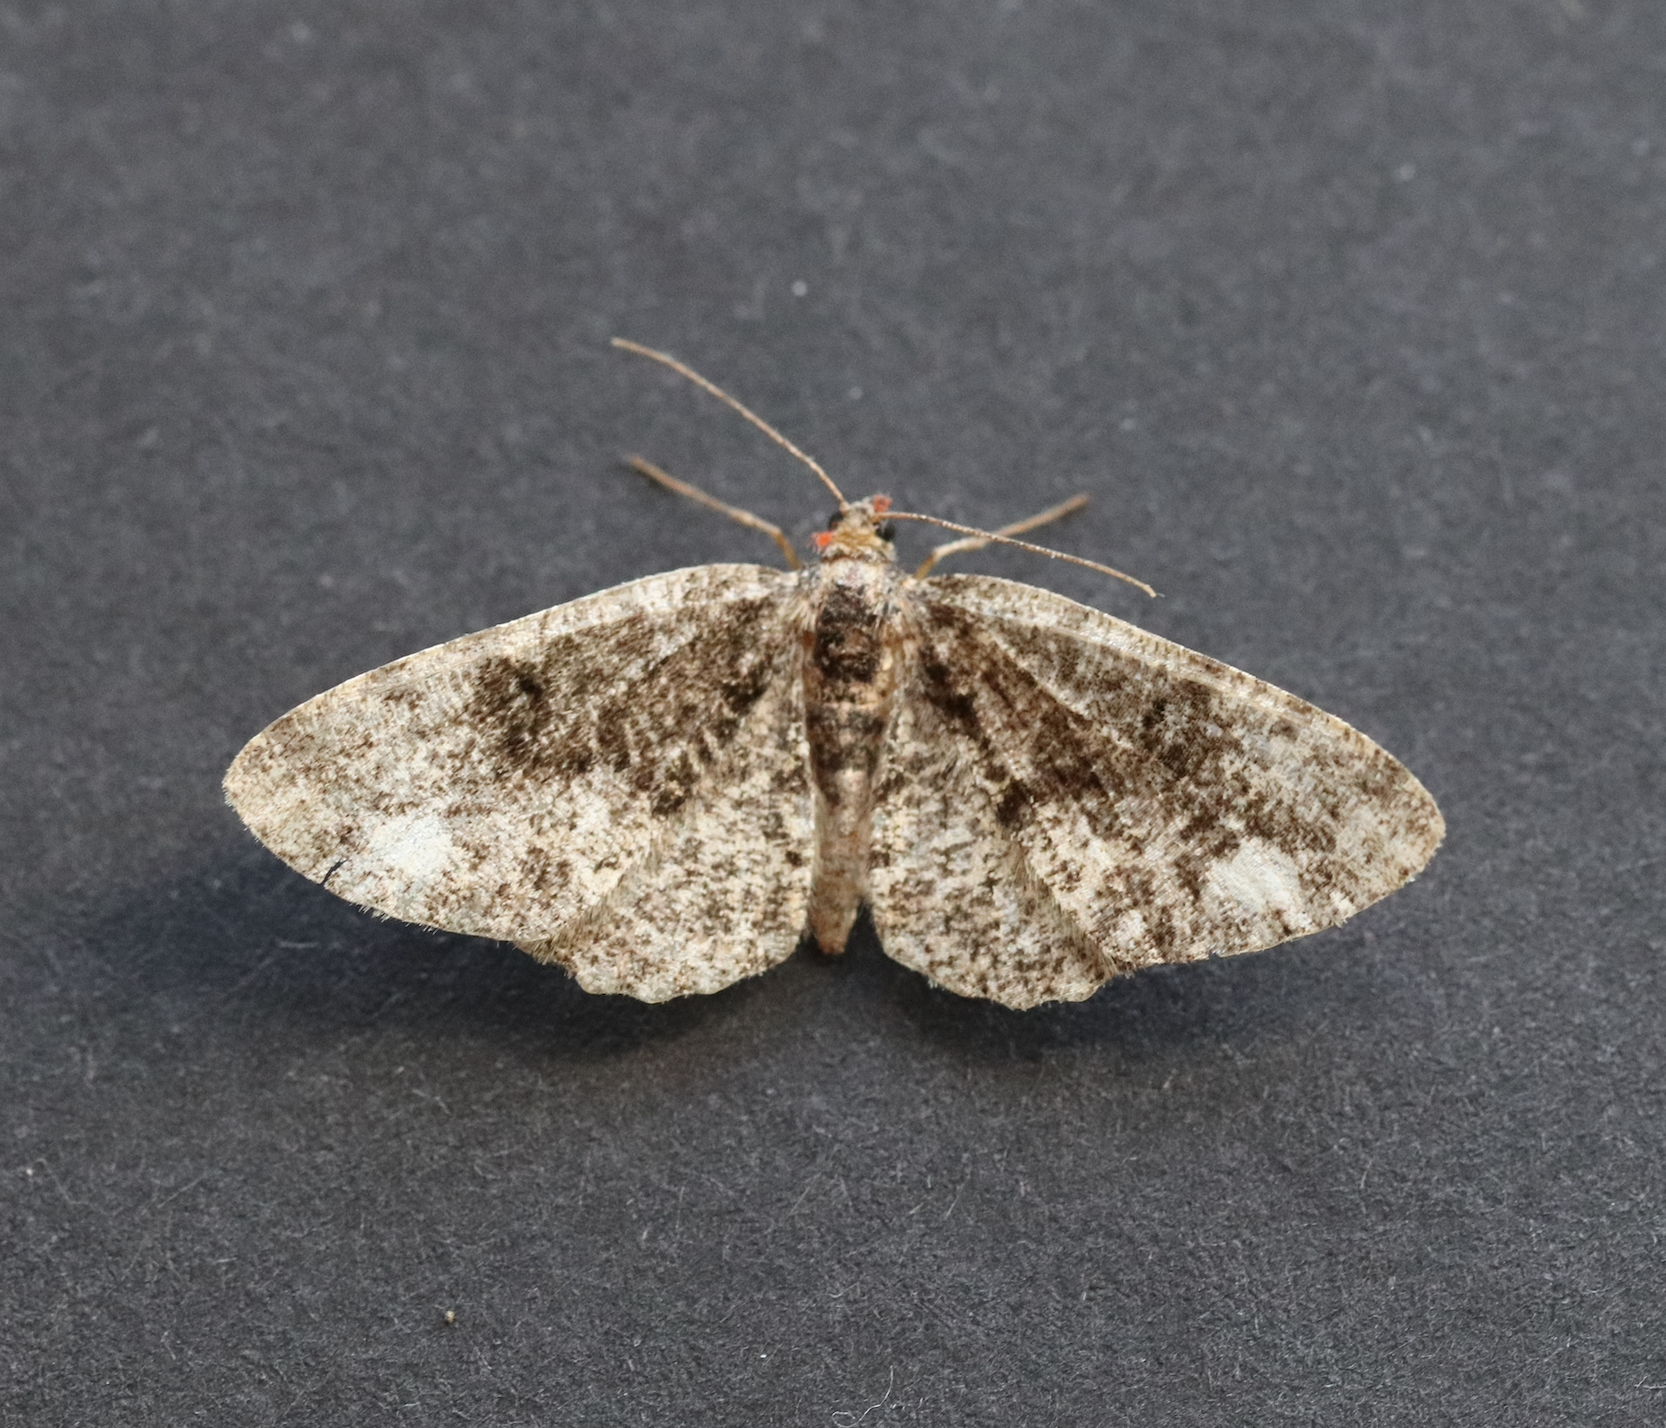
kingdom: Animalia
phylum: Arthropoda
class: Insecta
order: Lepidoptera
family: Geometridae
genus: Parectropis
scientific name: Parectropis similaria
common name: Brindled white-spot
